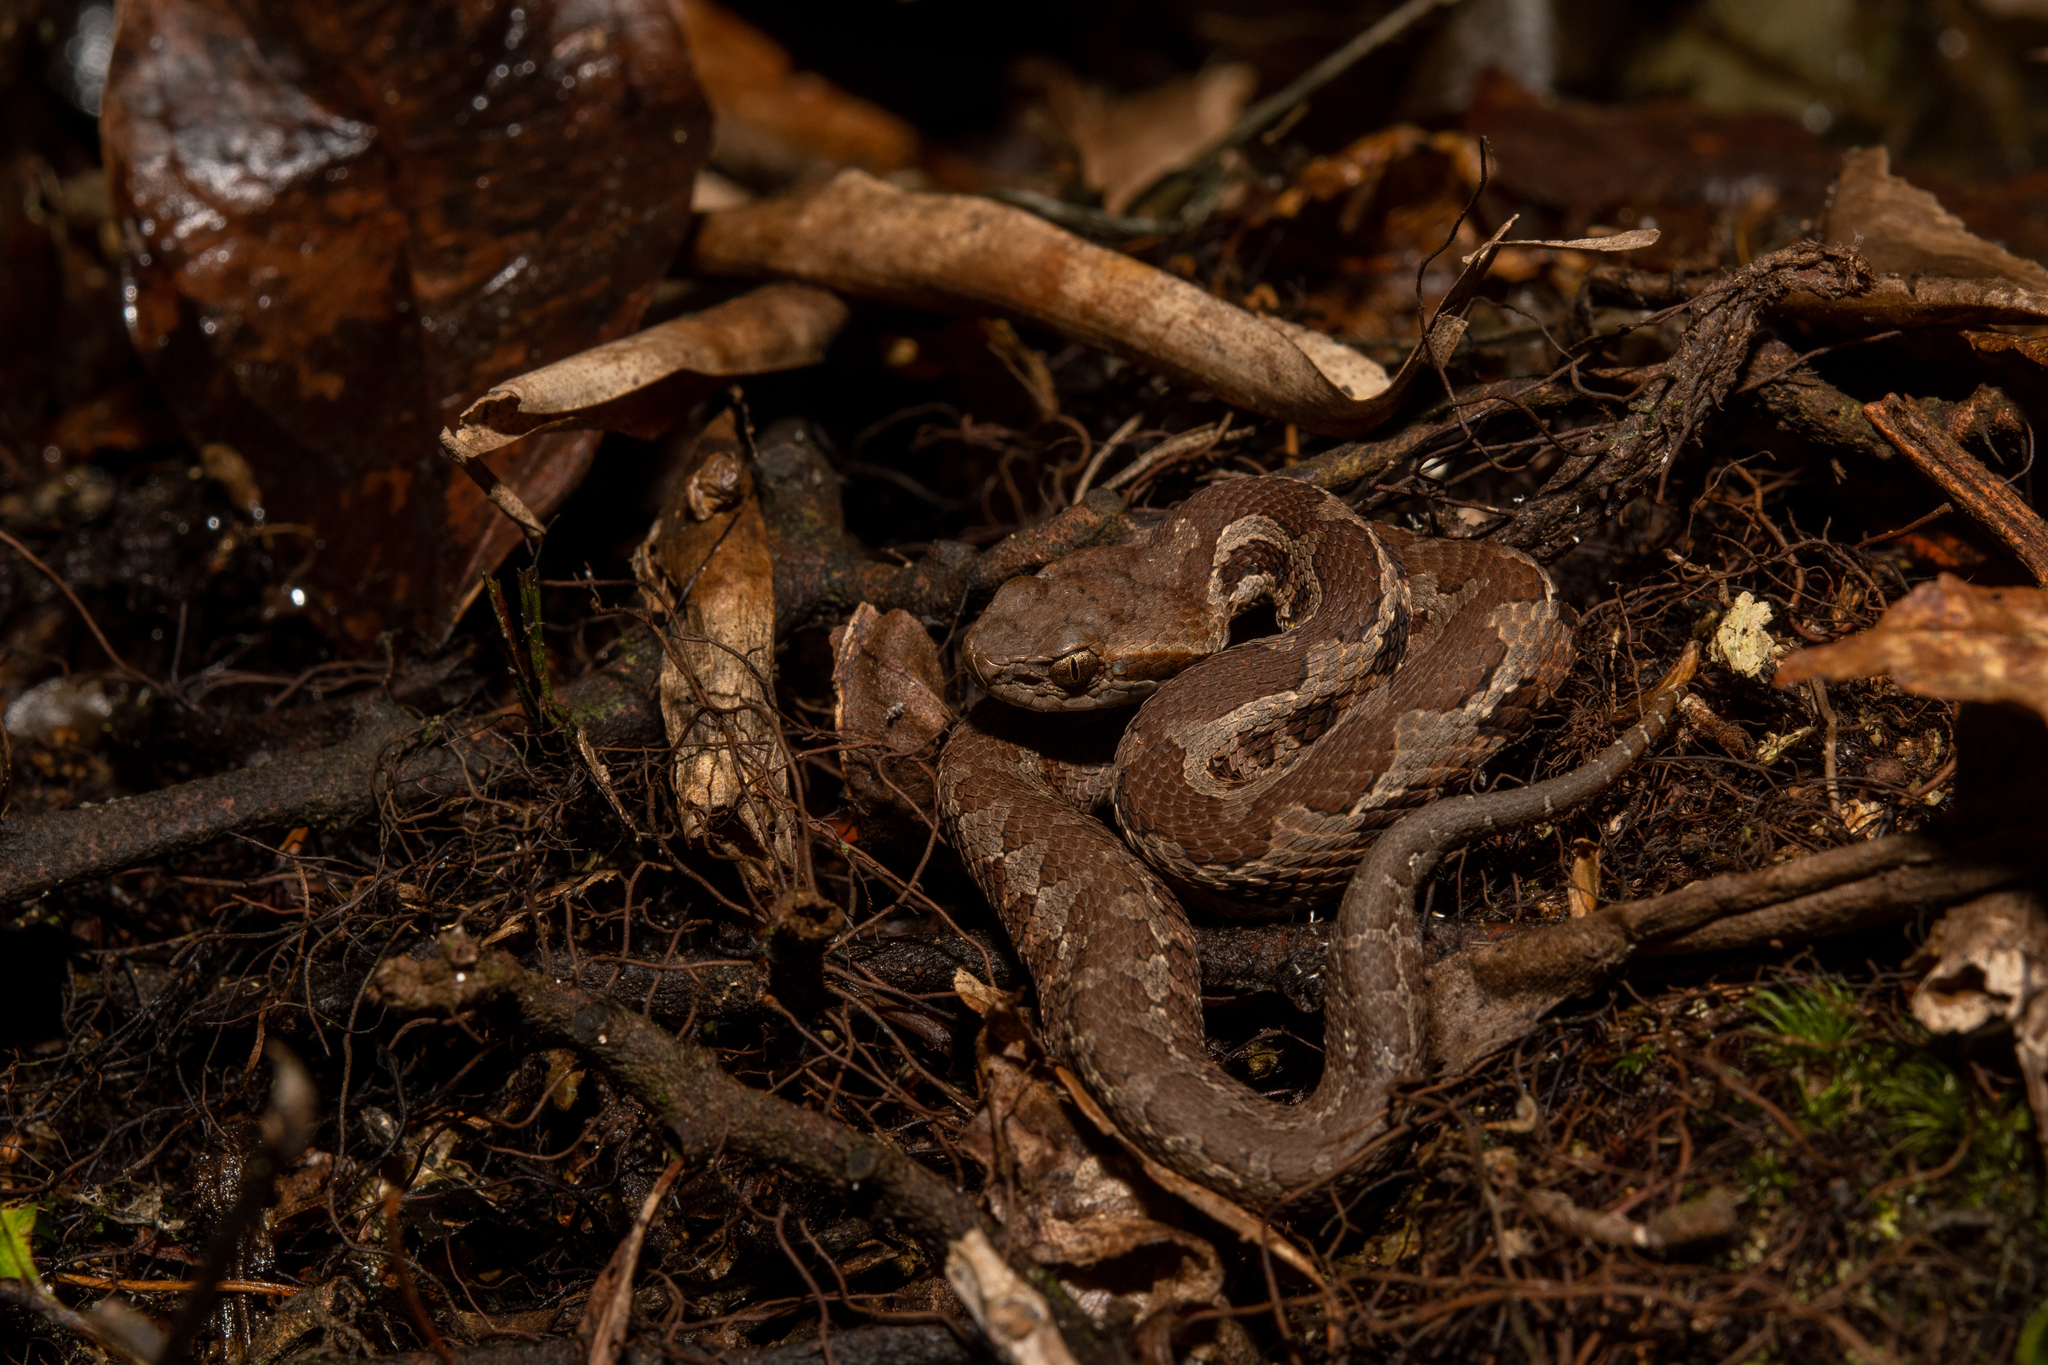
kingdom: Animalia
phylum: Chordata
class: Squamata
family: Viperidae
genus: Cerrophidion
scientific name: Cerrophidion wilsoni
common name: Honduras montane pitviper
